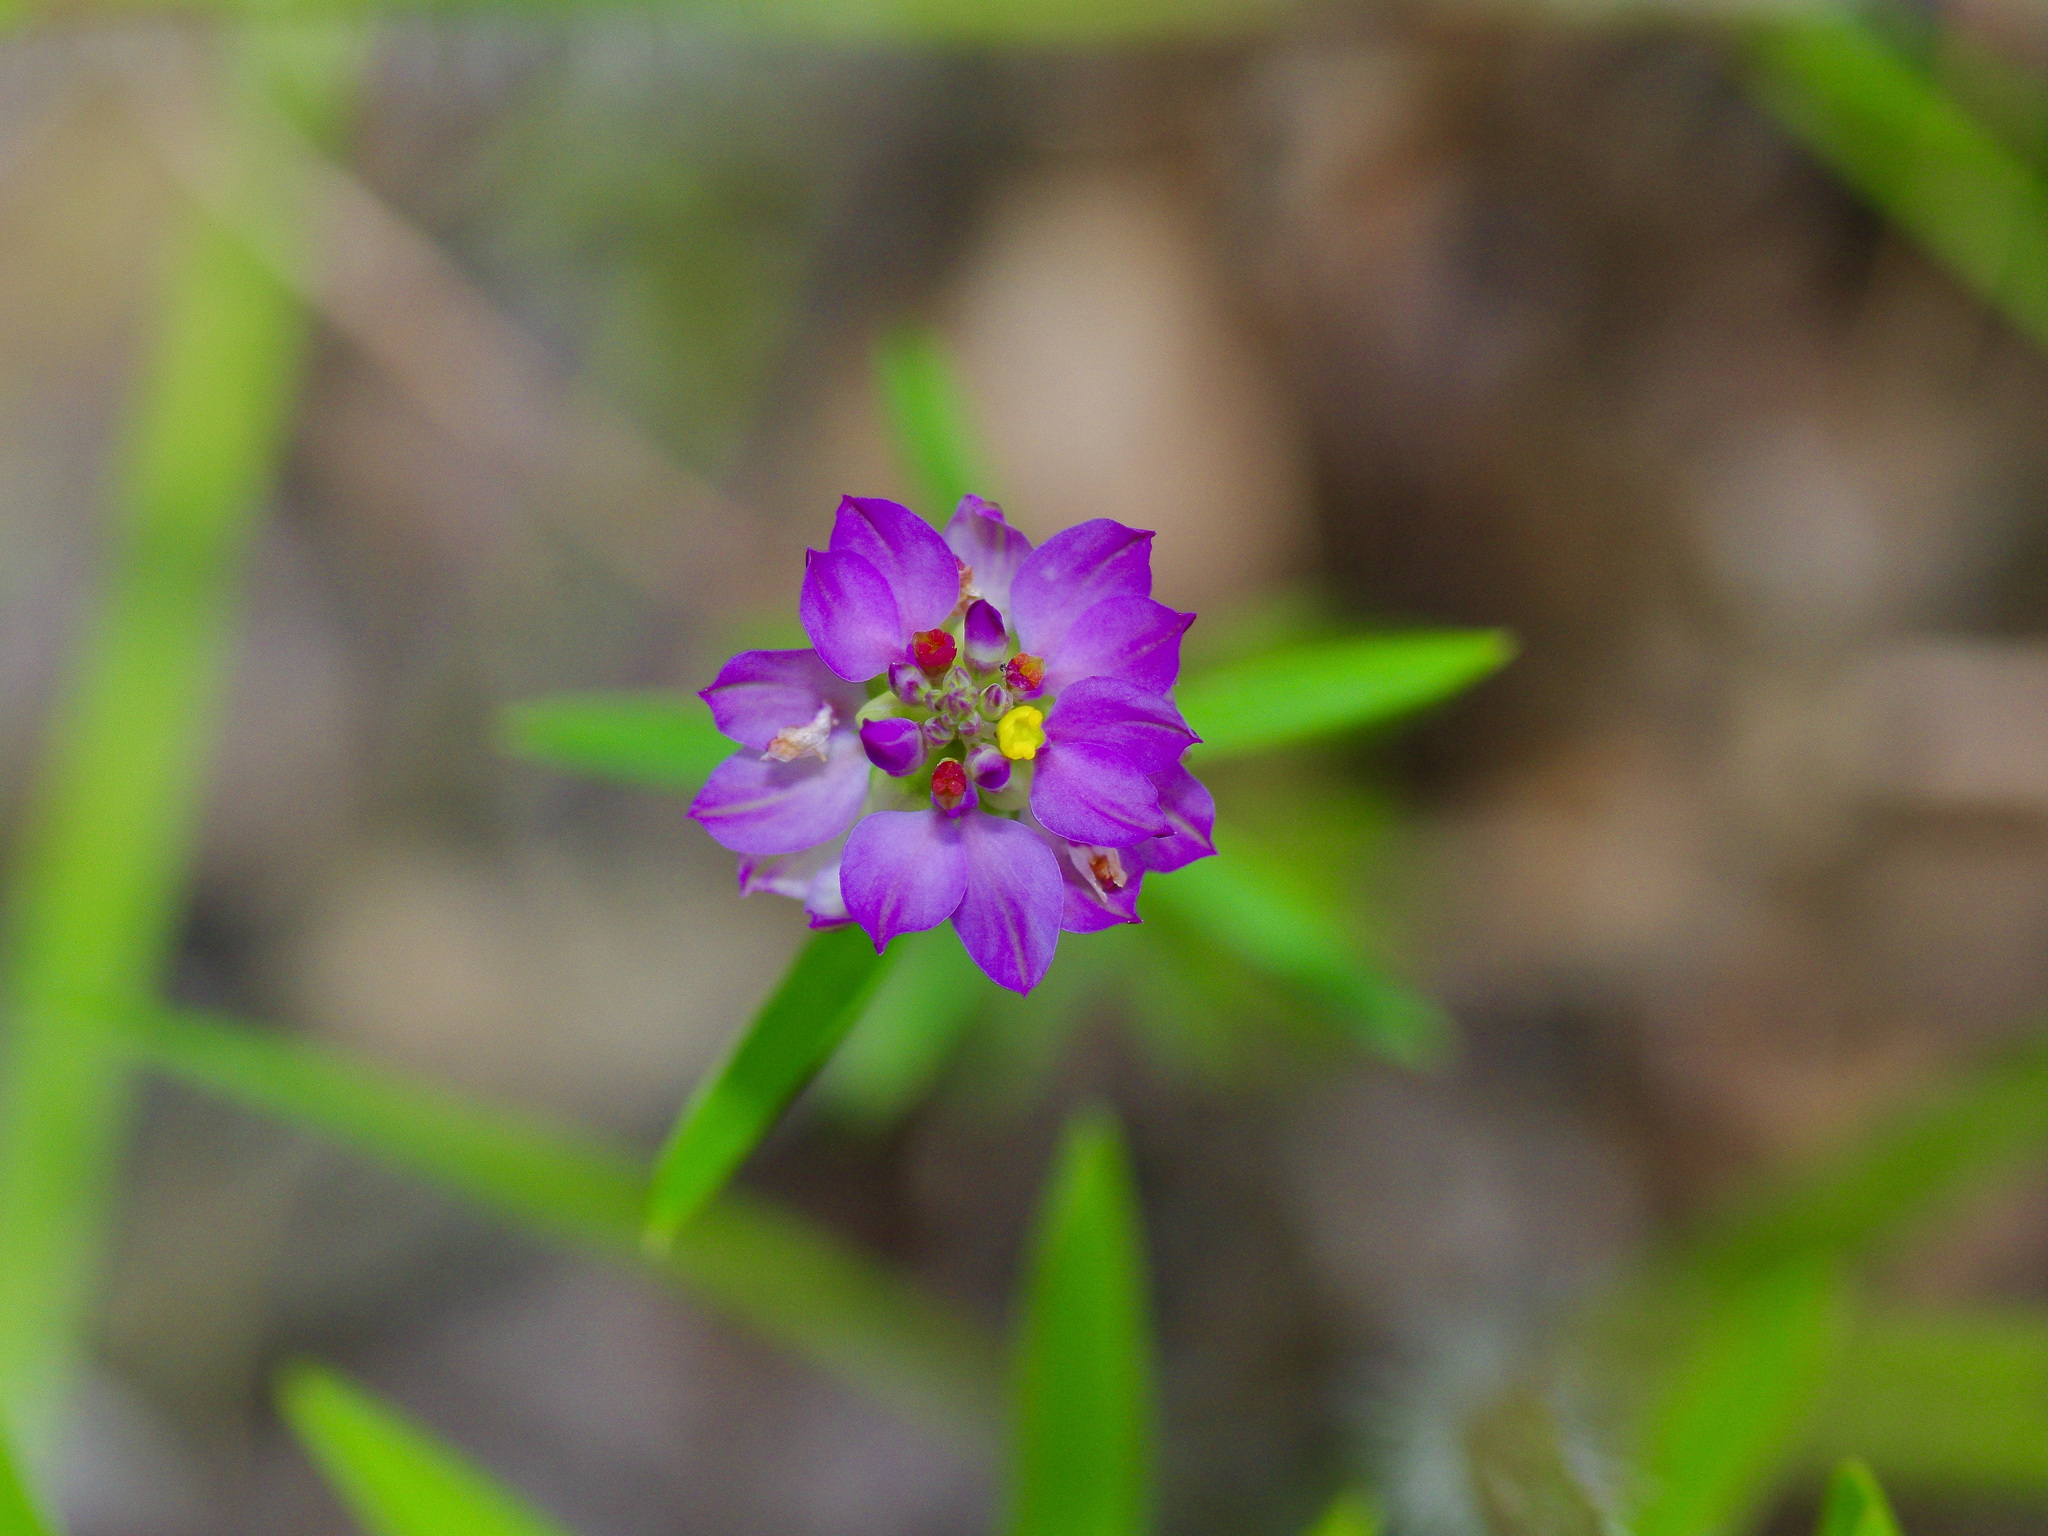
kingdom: Plantae
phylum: Tracheophyta
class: Magnoliopsida
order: Fabales
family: Polygalaceae
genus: Polygala
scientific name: Polygala mariana
